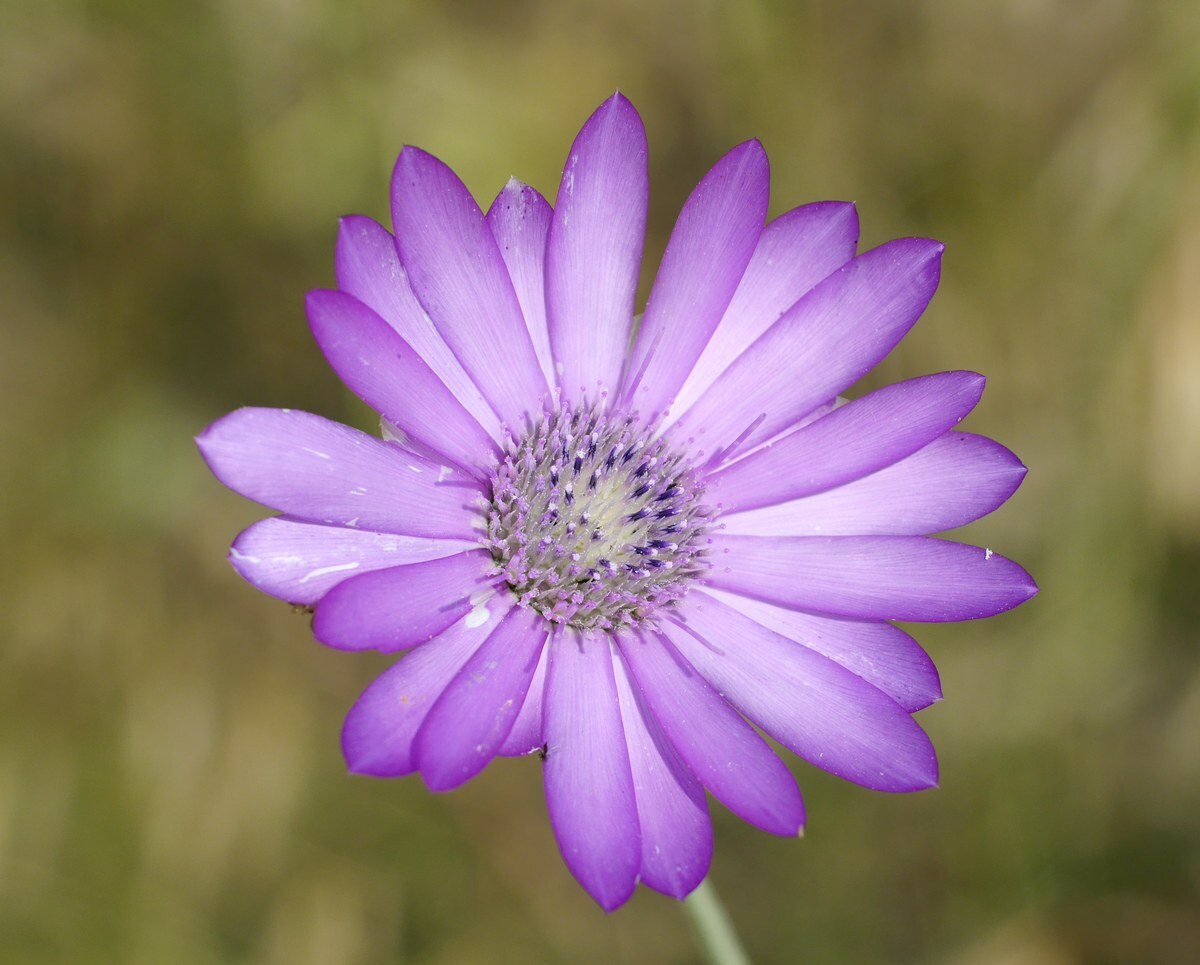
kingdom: Plantae
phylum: Tracheophyta
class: Magnoliopsida
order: Asterales
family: Asteraceae
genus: Xeranthemum
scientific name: Xeranthemum annuum
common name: Immortelle
